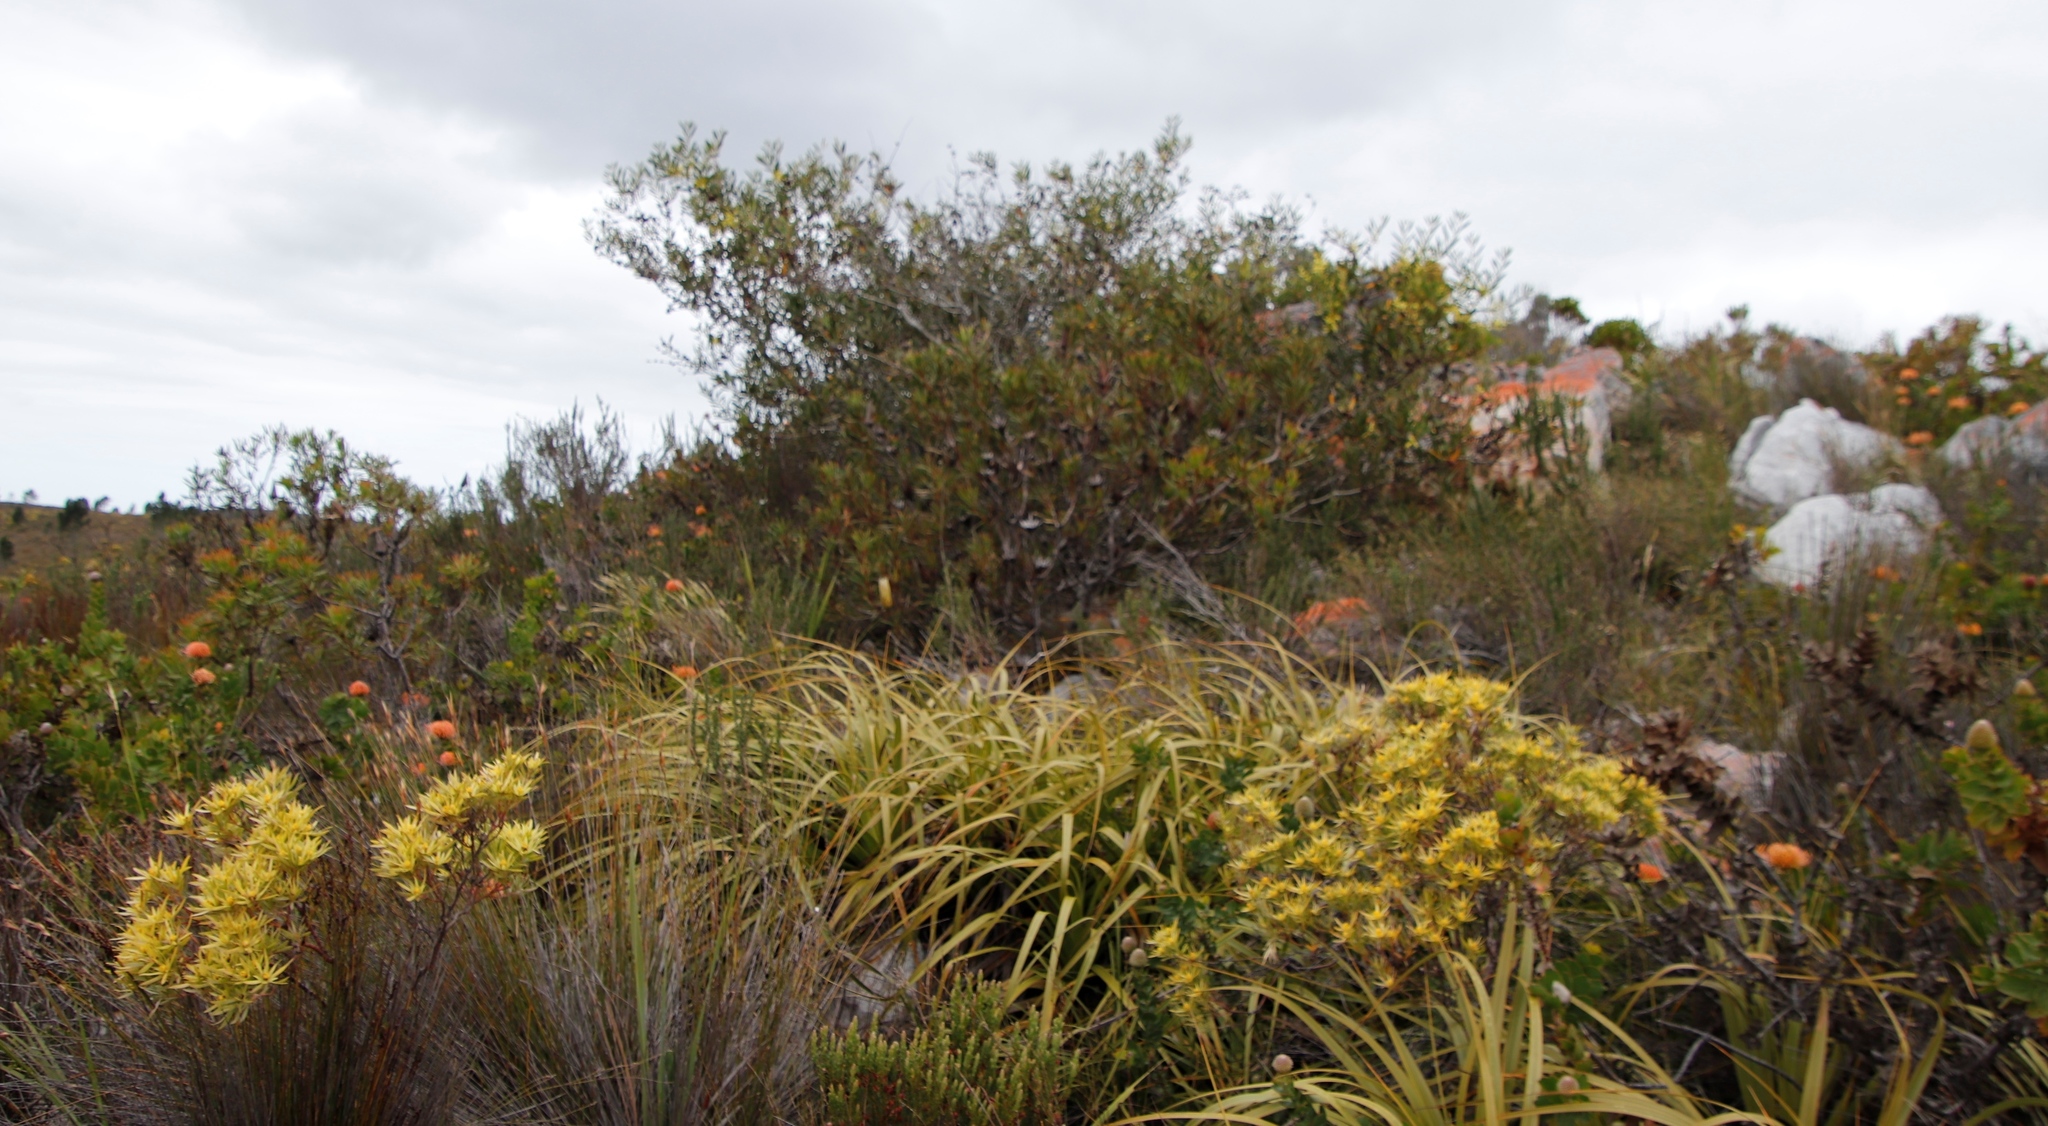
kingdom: Plantae
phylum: Tracheophyta
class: Liliopsida
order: Poales
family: Cyperaceae
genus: Tetraria
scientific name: Tetraria thermalis
